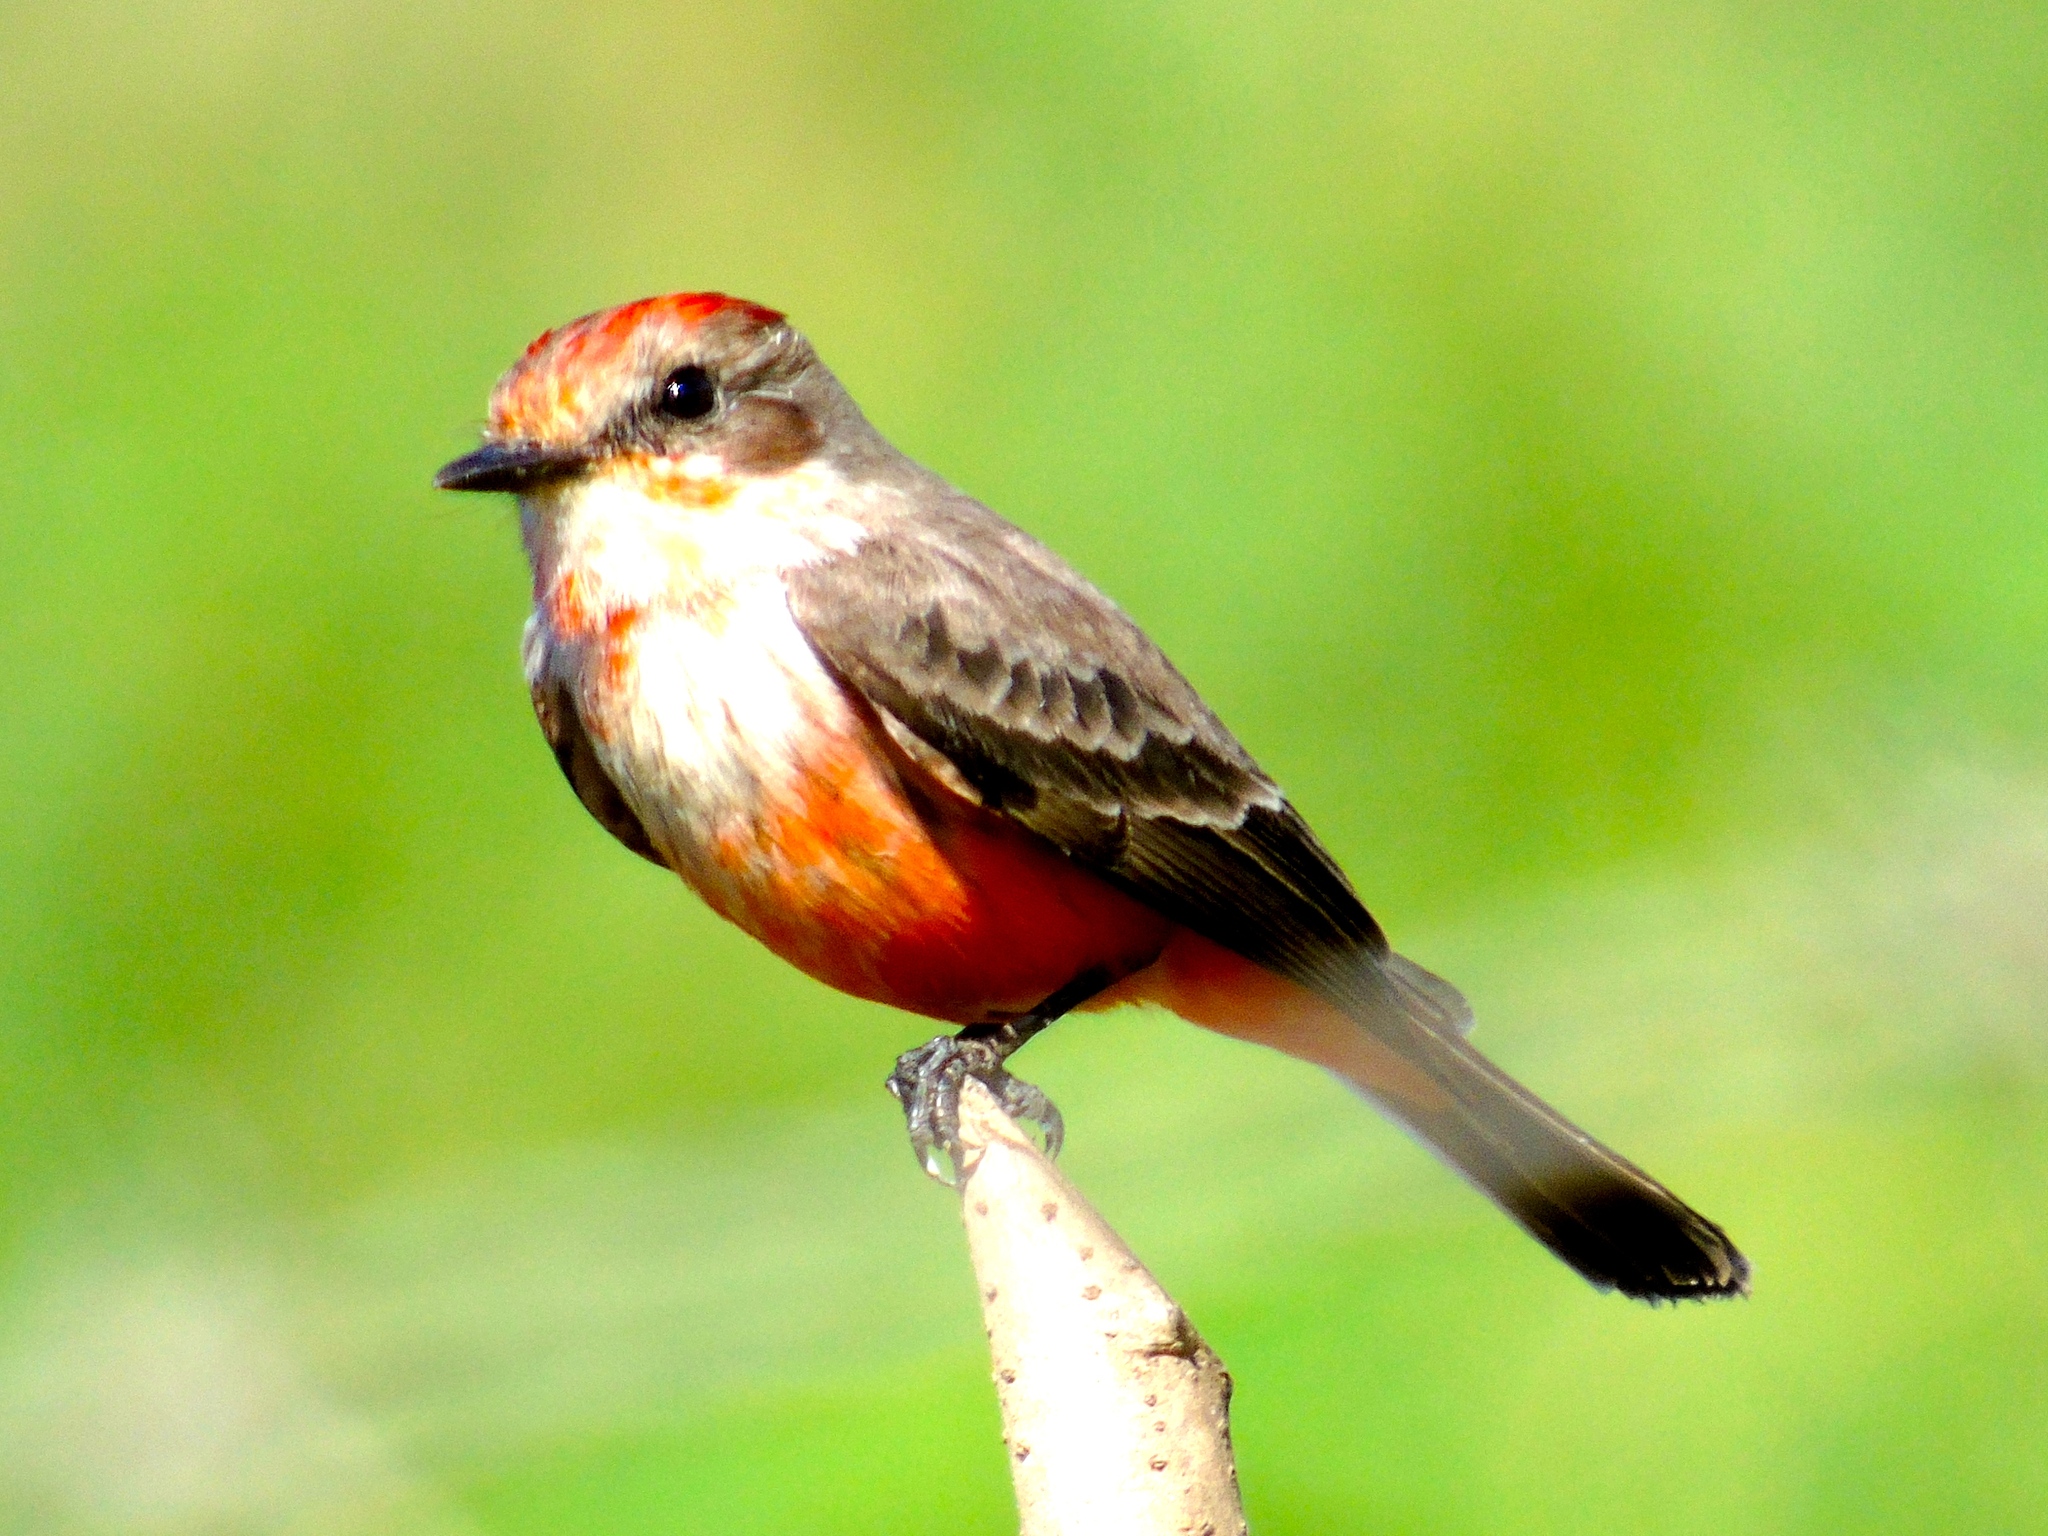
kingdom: Animalia
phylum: Chordata
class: Aves
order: Passeriformes
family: Tyrannidae
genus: Pyrocephalus
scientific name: Pyrocephalus rubinus
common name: Vermilion flycatcher
